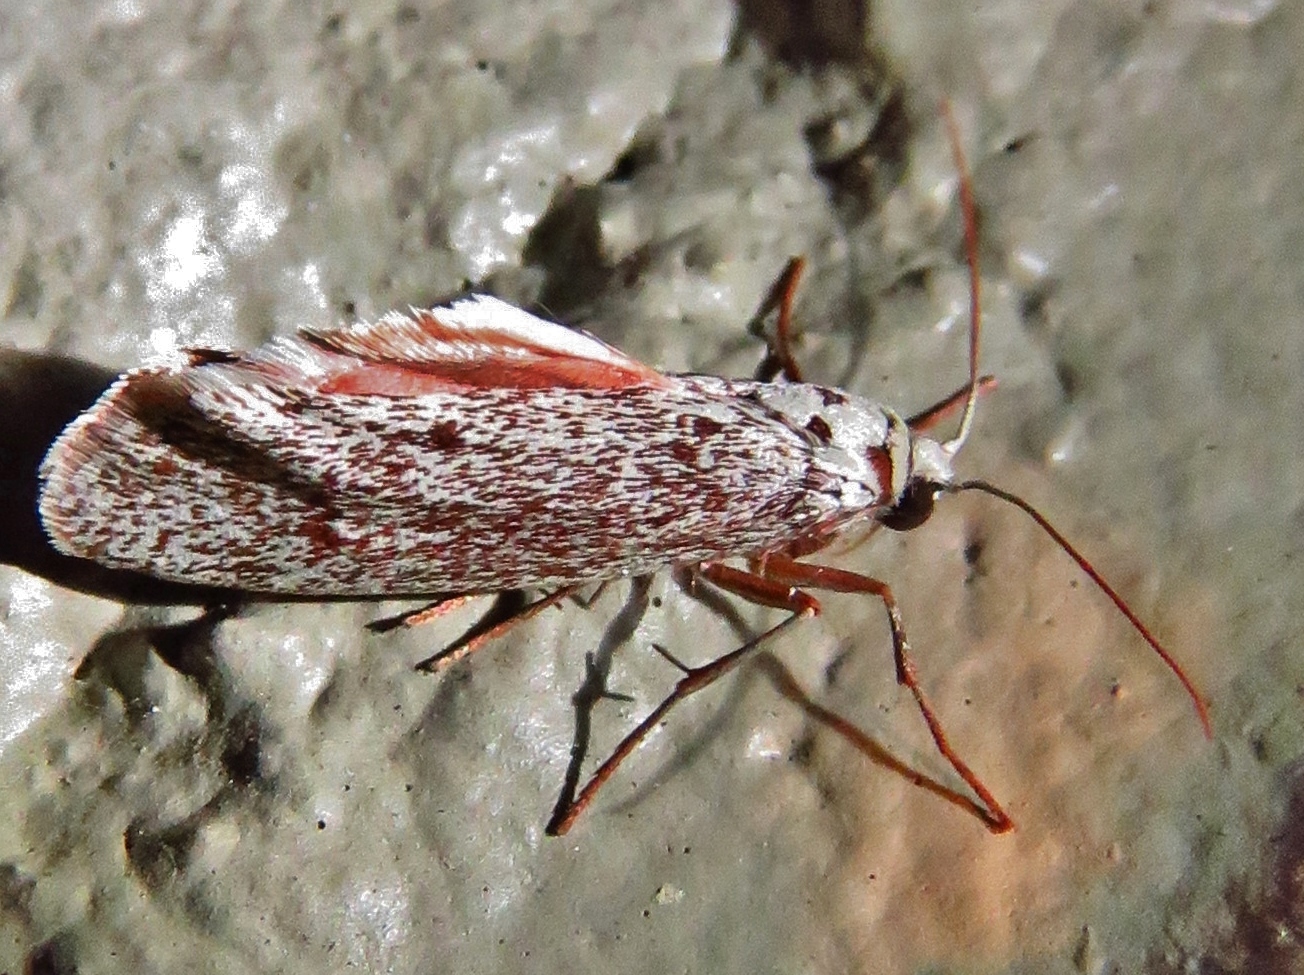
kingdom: Animalia
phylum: Arthropoda
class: Insecta
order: Lepidoptera
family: Lacturidae
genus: Lactura
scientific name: Lactura
